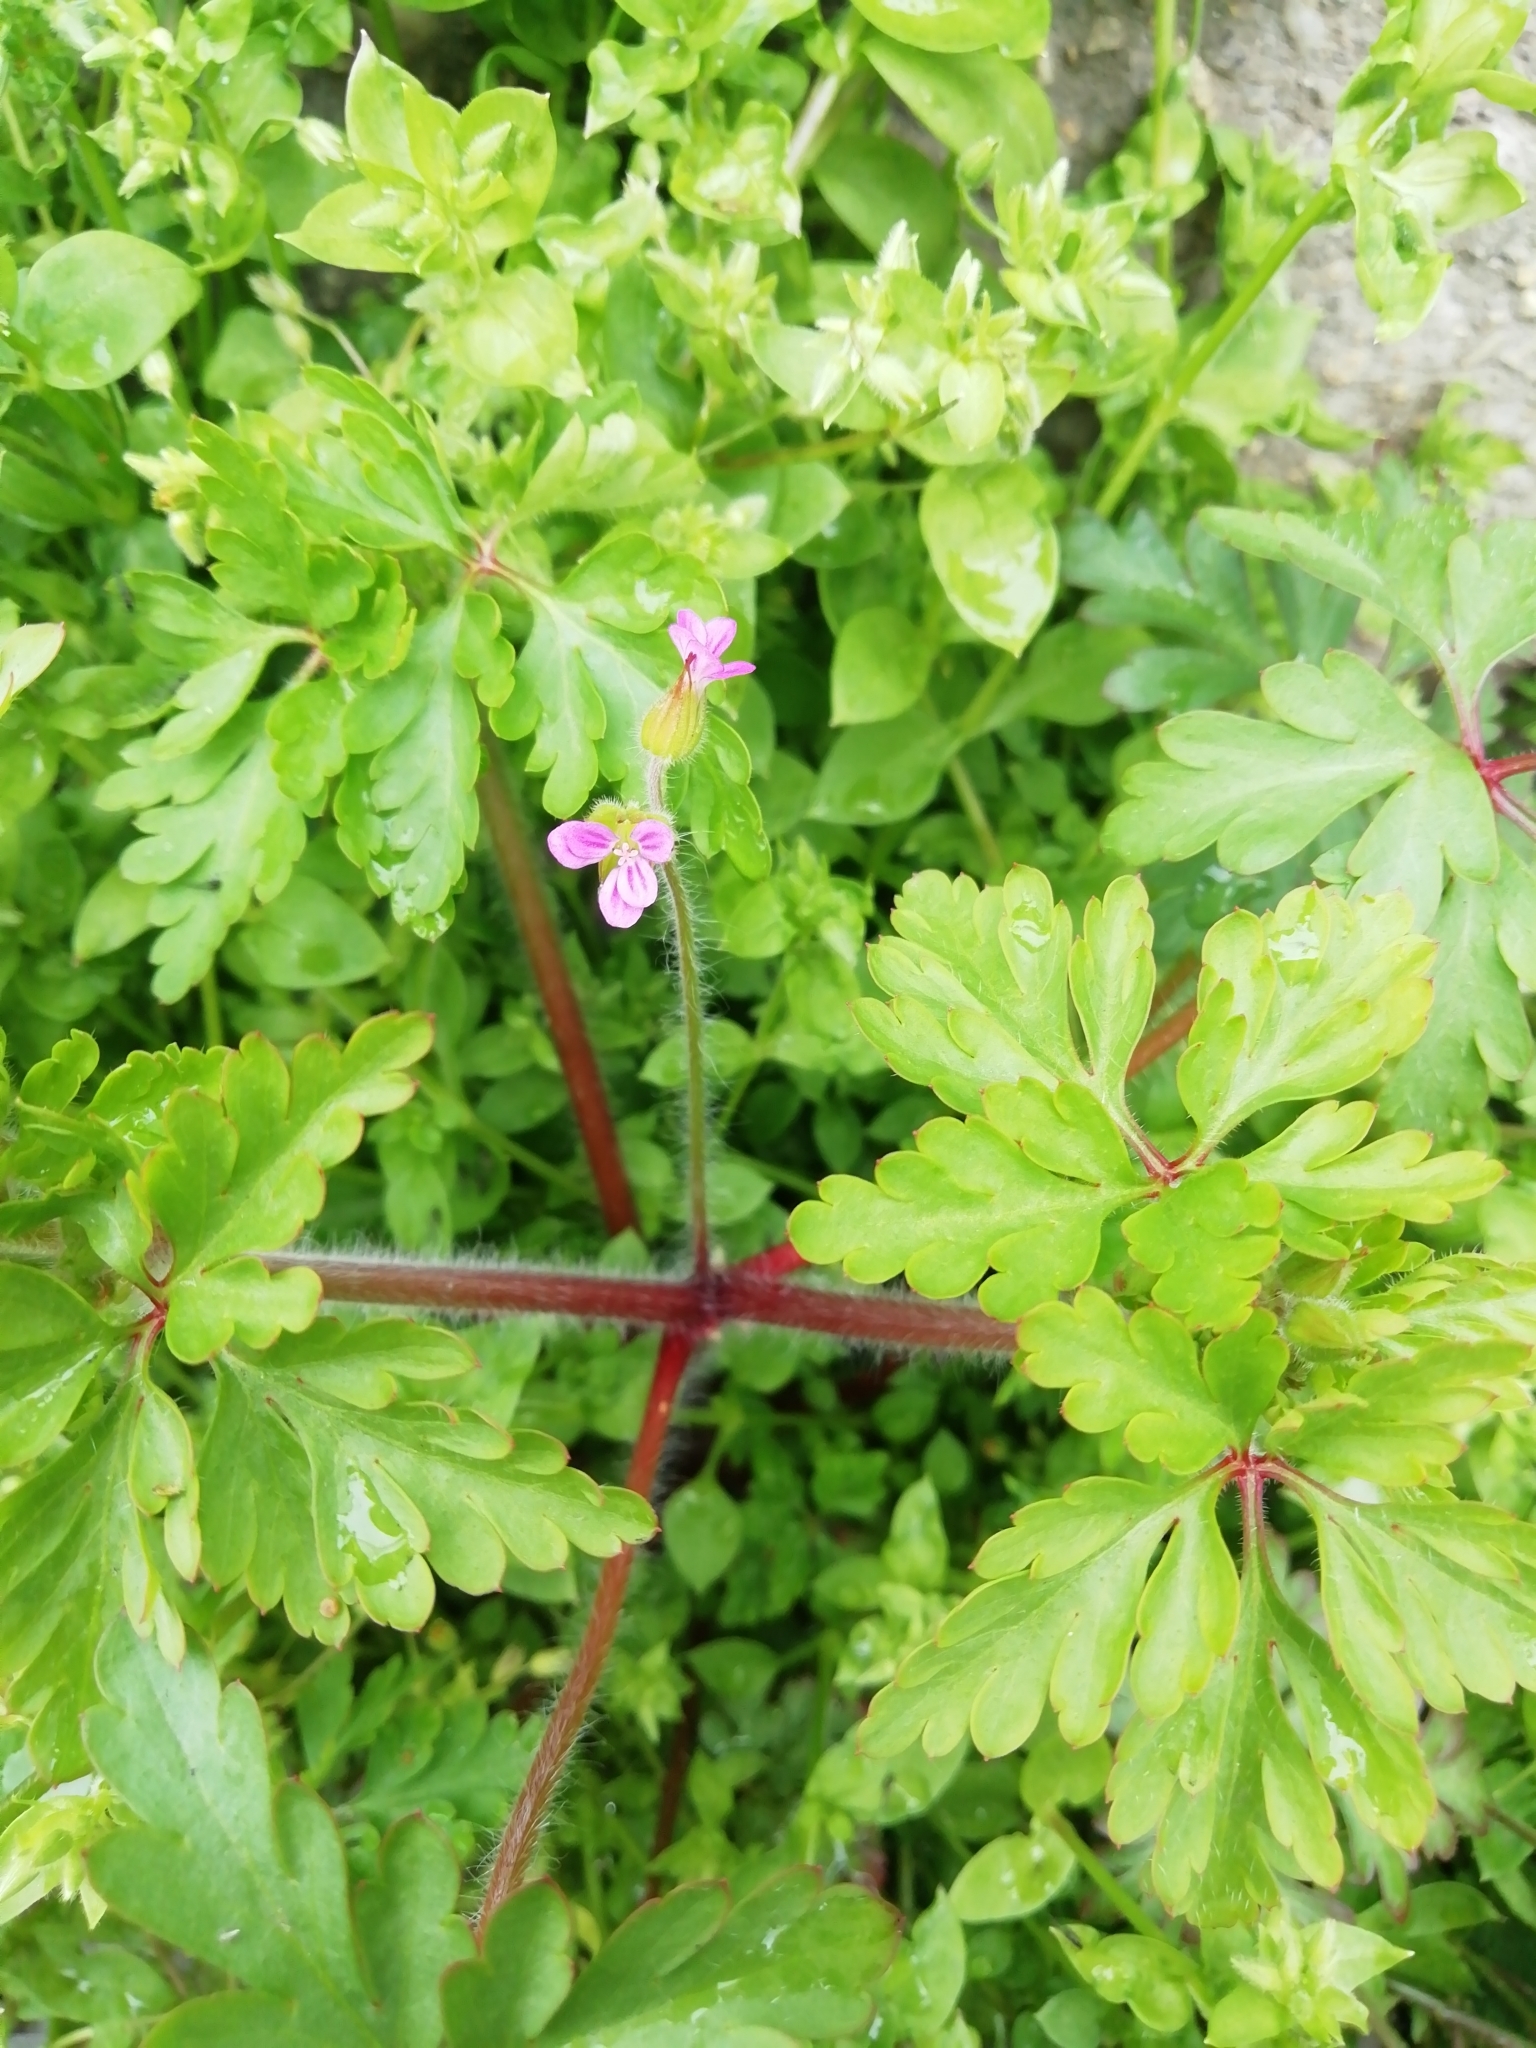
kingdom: Plantae
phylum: Tracheophyta
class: Magnoliopsida
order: Geraniales
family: Geraniaceae
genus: Geranium
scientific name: Geranium robertianum
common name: Herb-robert
